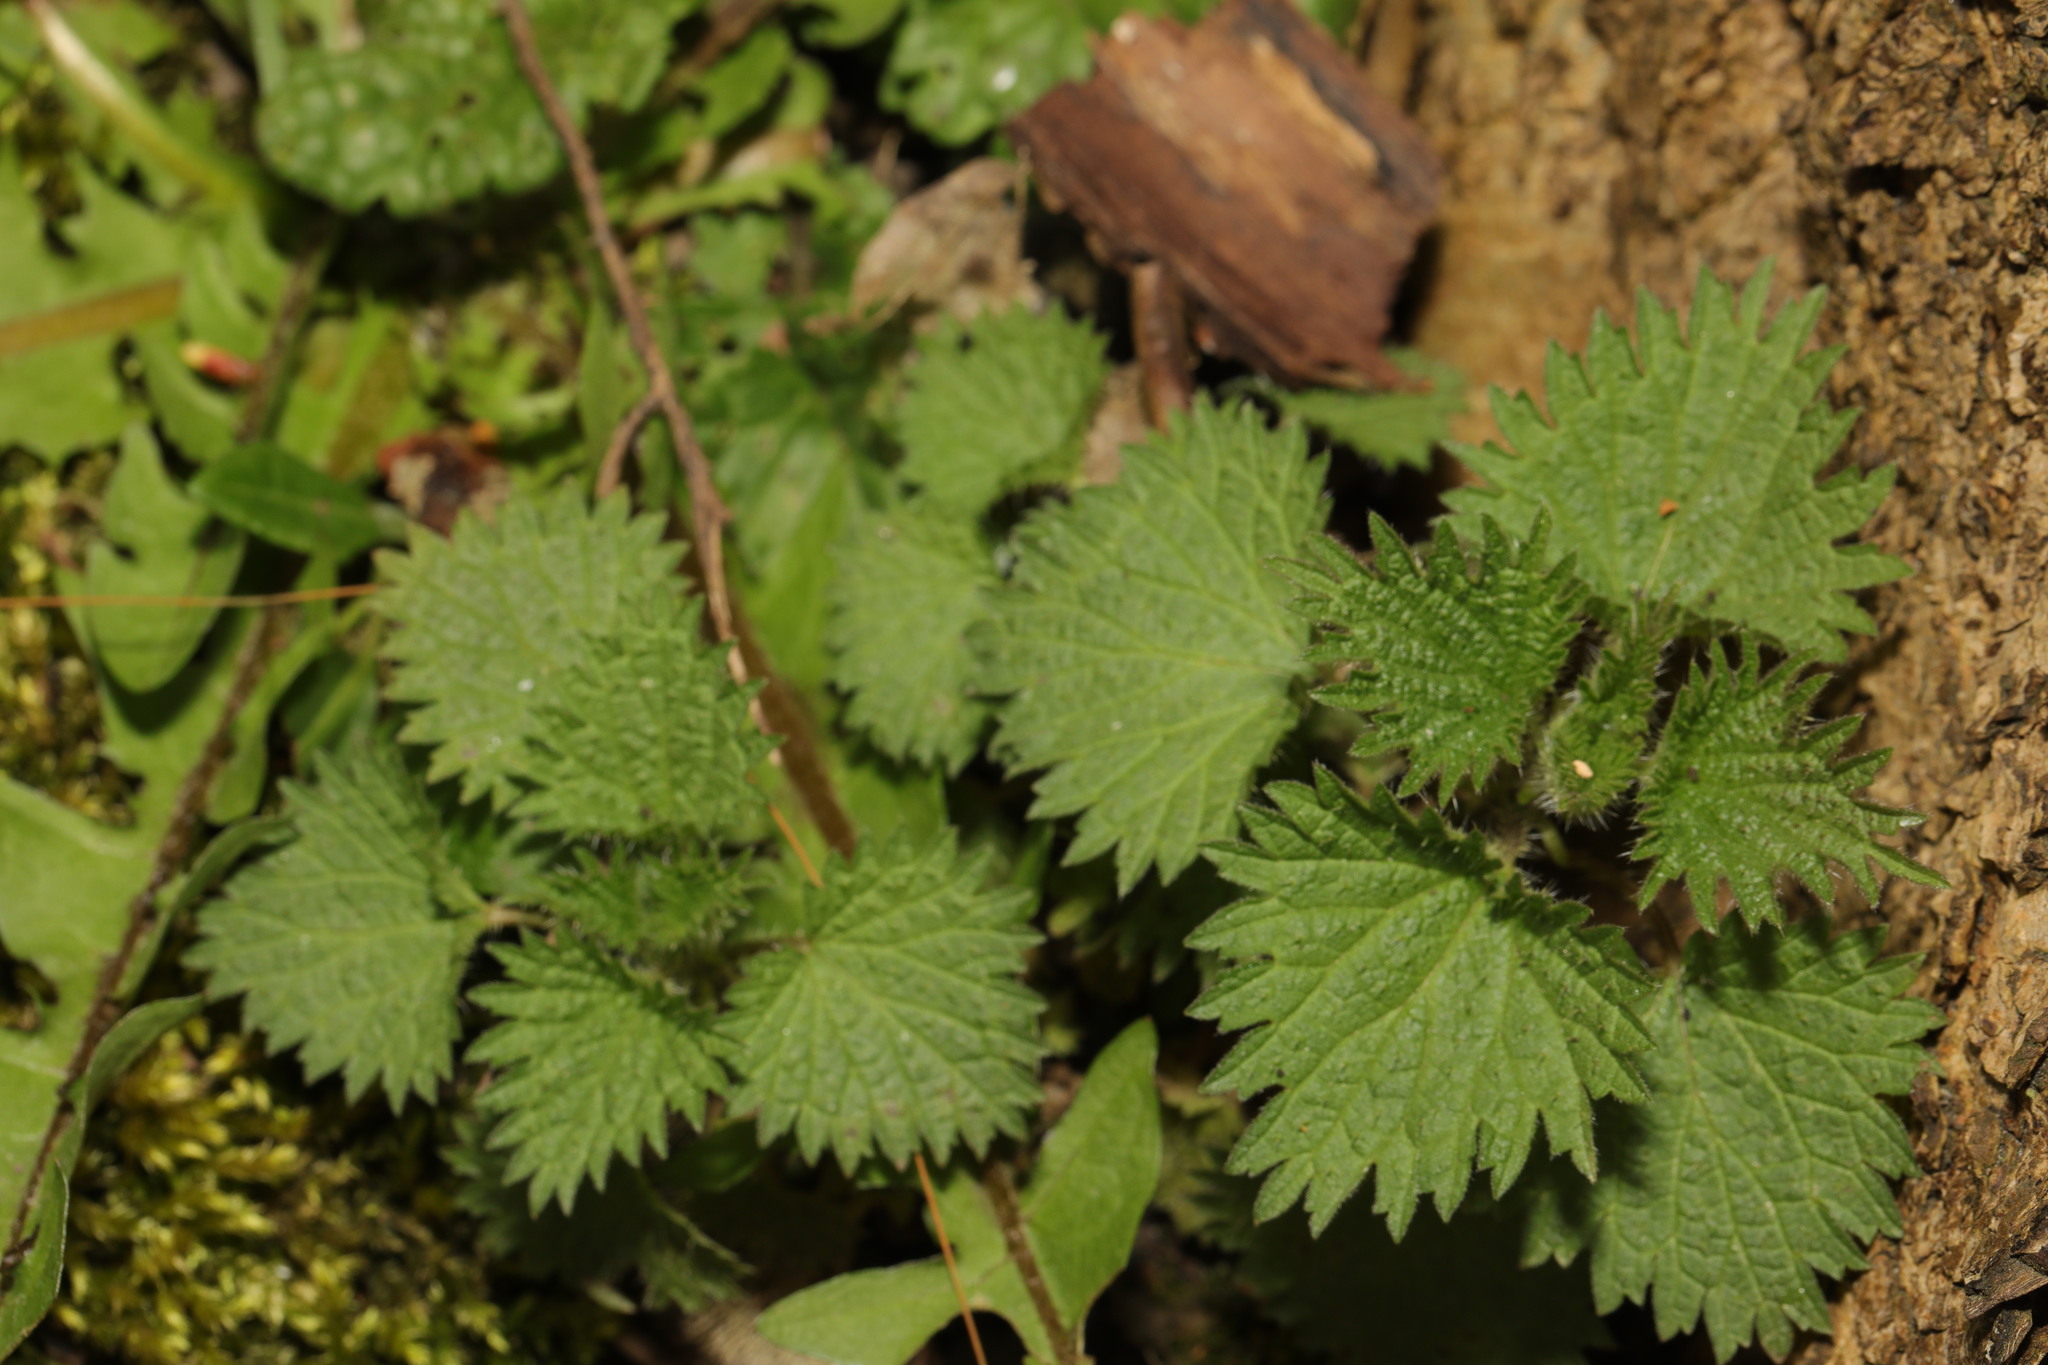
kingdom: Plantae
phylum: Tracheophyta
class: Magnoliopsida
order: Rosales
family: Urticaceae
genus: Urtica
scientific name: Urtica dioica
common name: Common nettle
